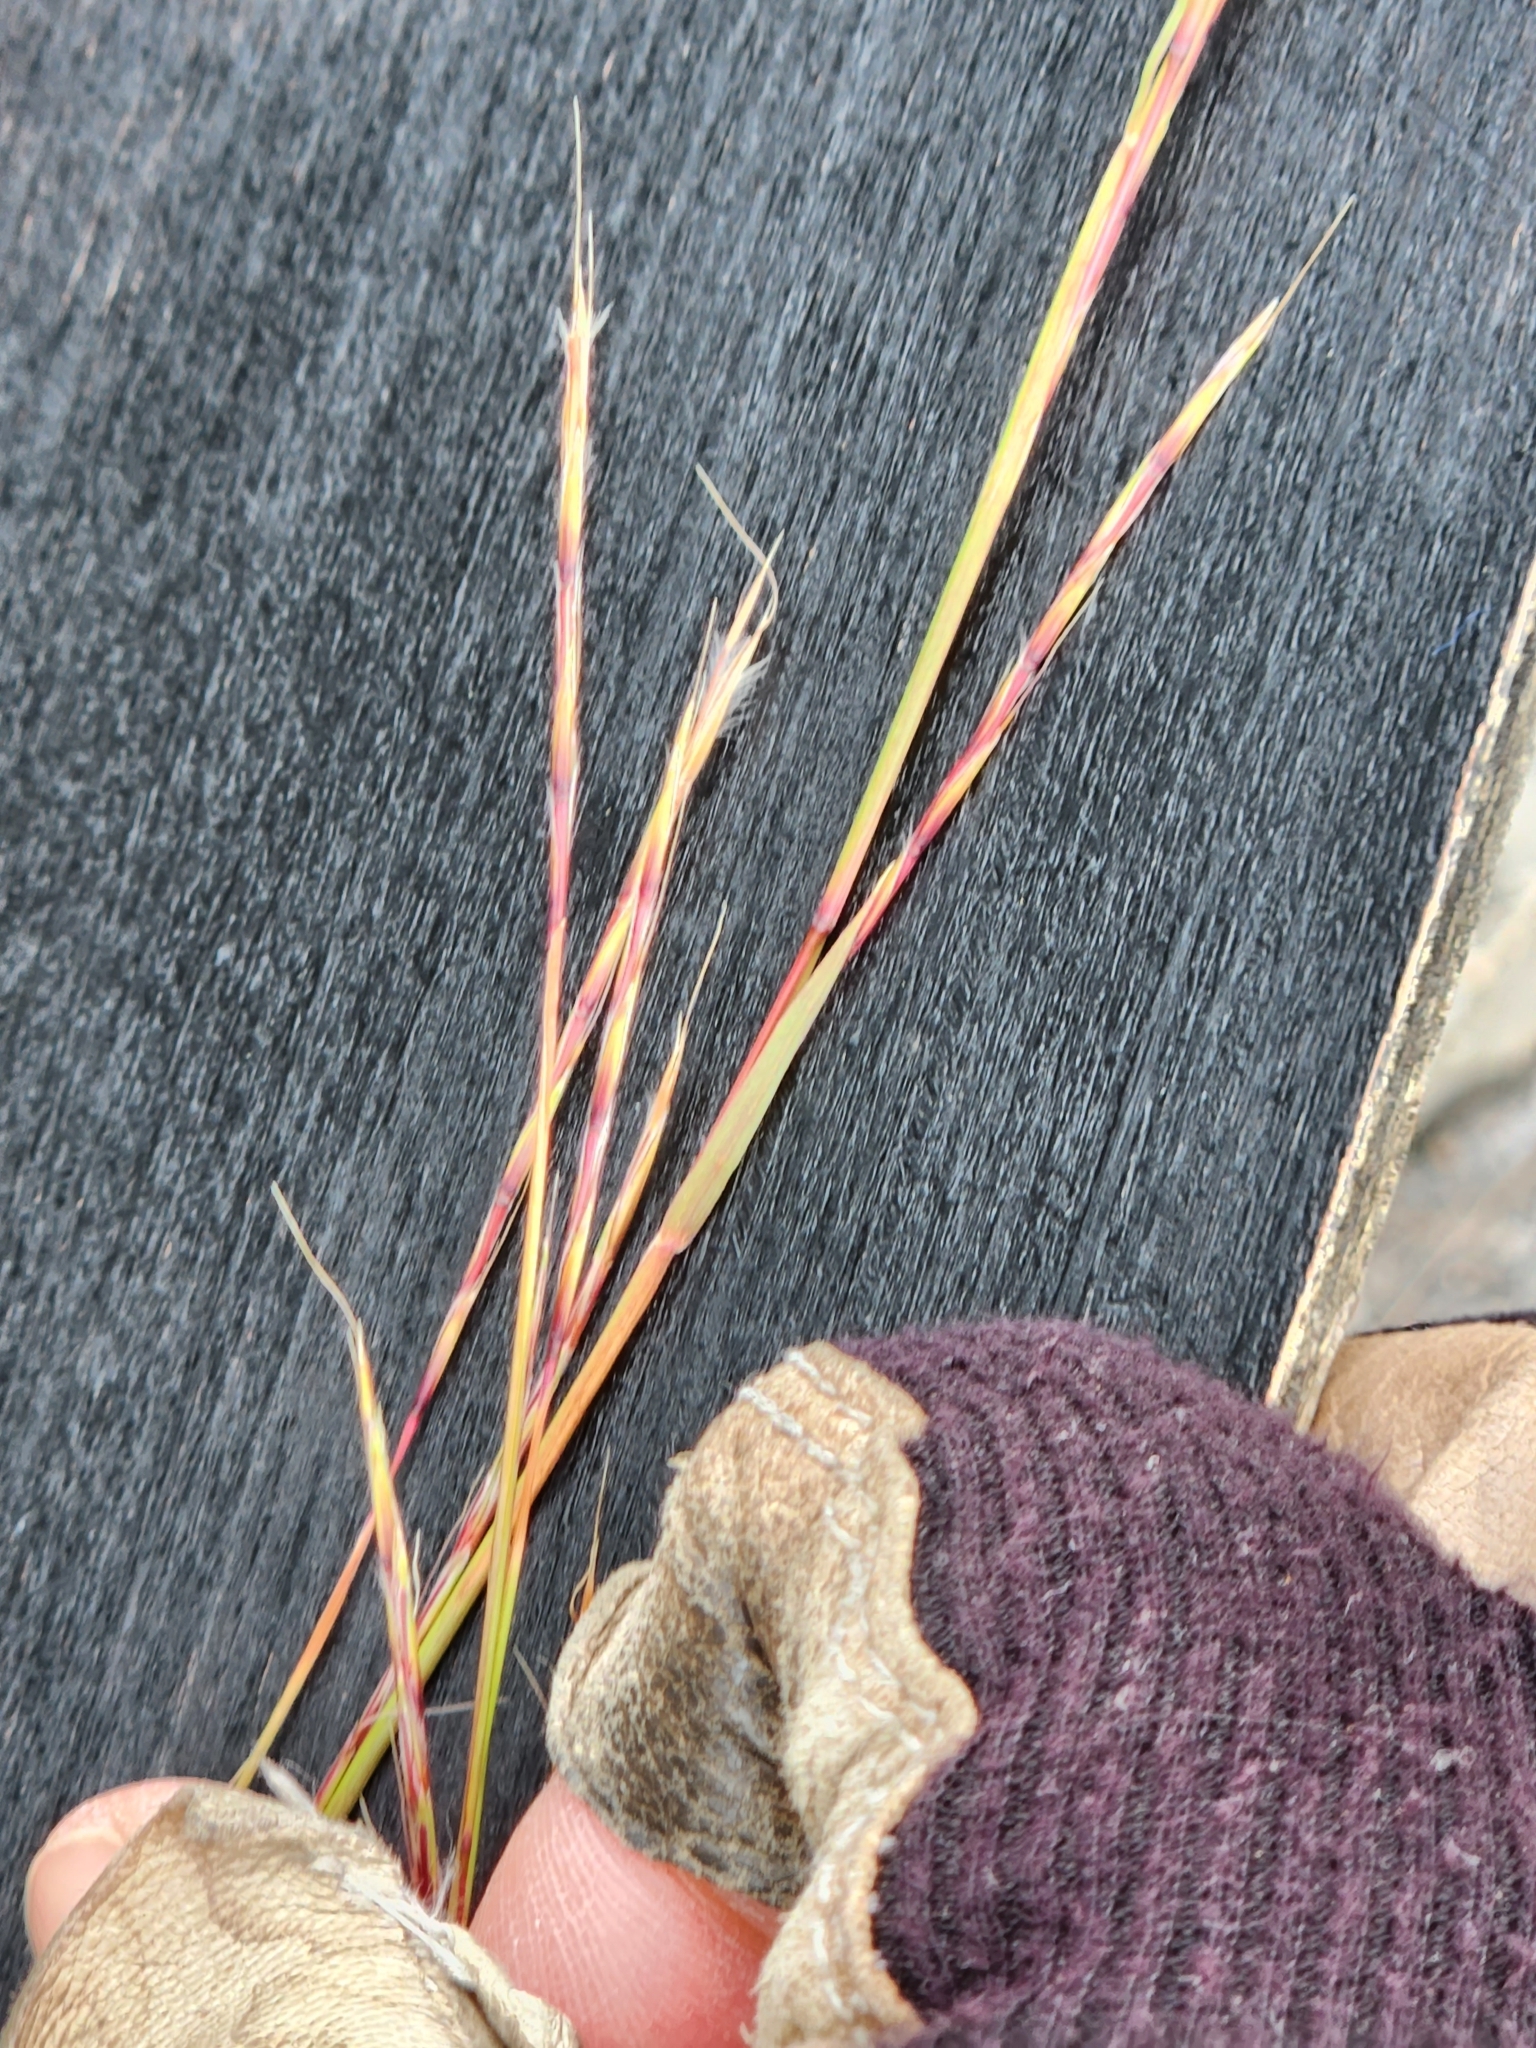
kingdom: Plantae
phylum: Tracheophyta
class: Liliopsida
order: Poales
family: Poaceae
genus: Schizachyrium
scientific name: Schizachyrium scoparium
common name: Little bluestem
